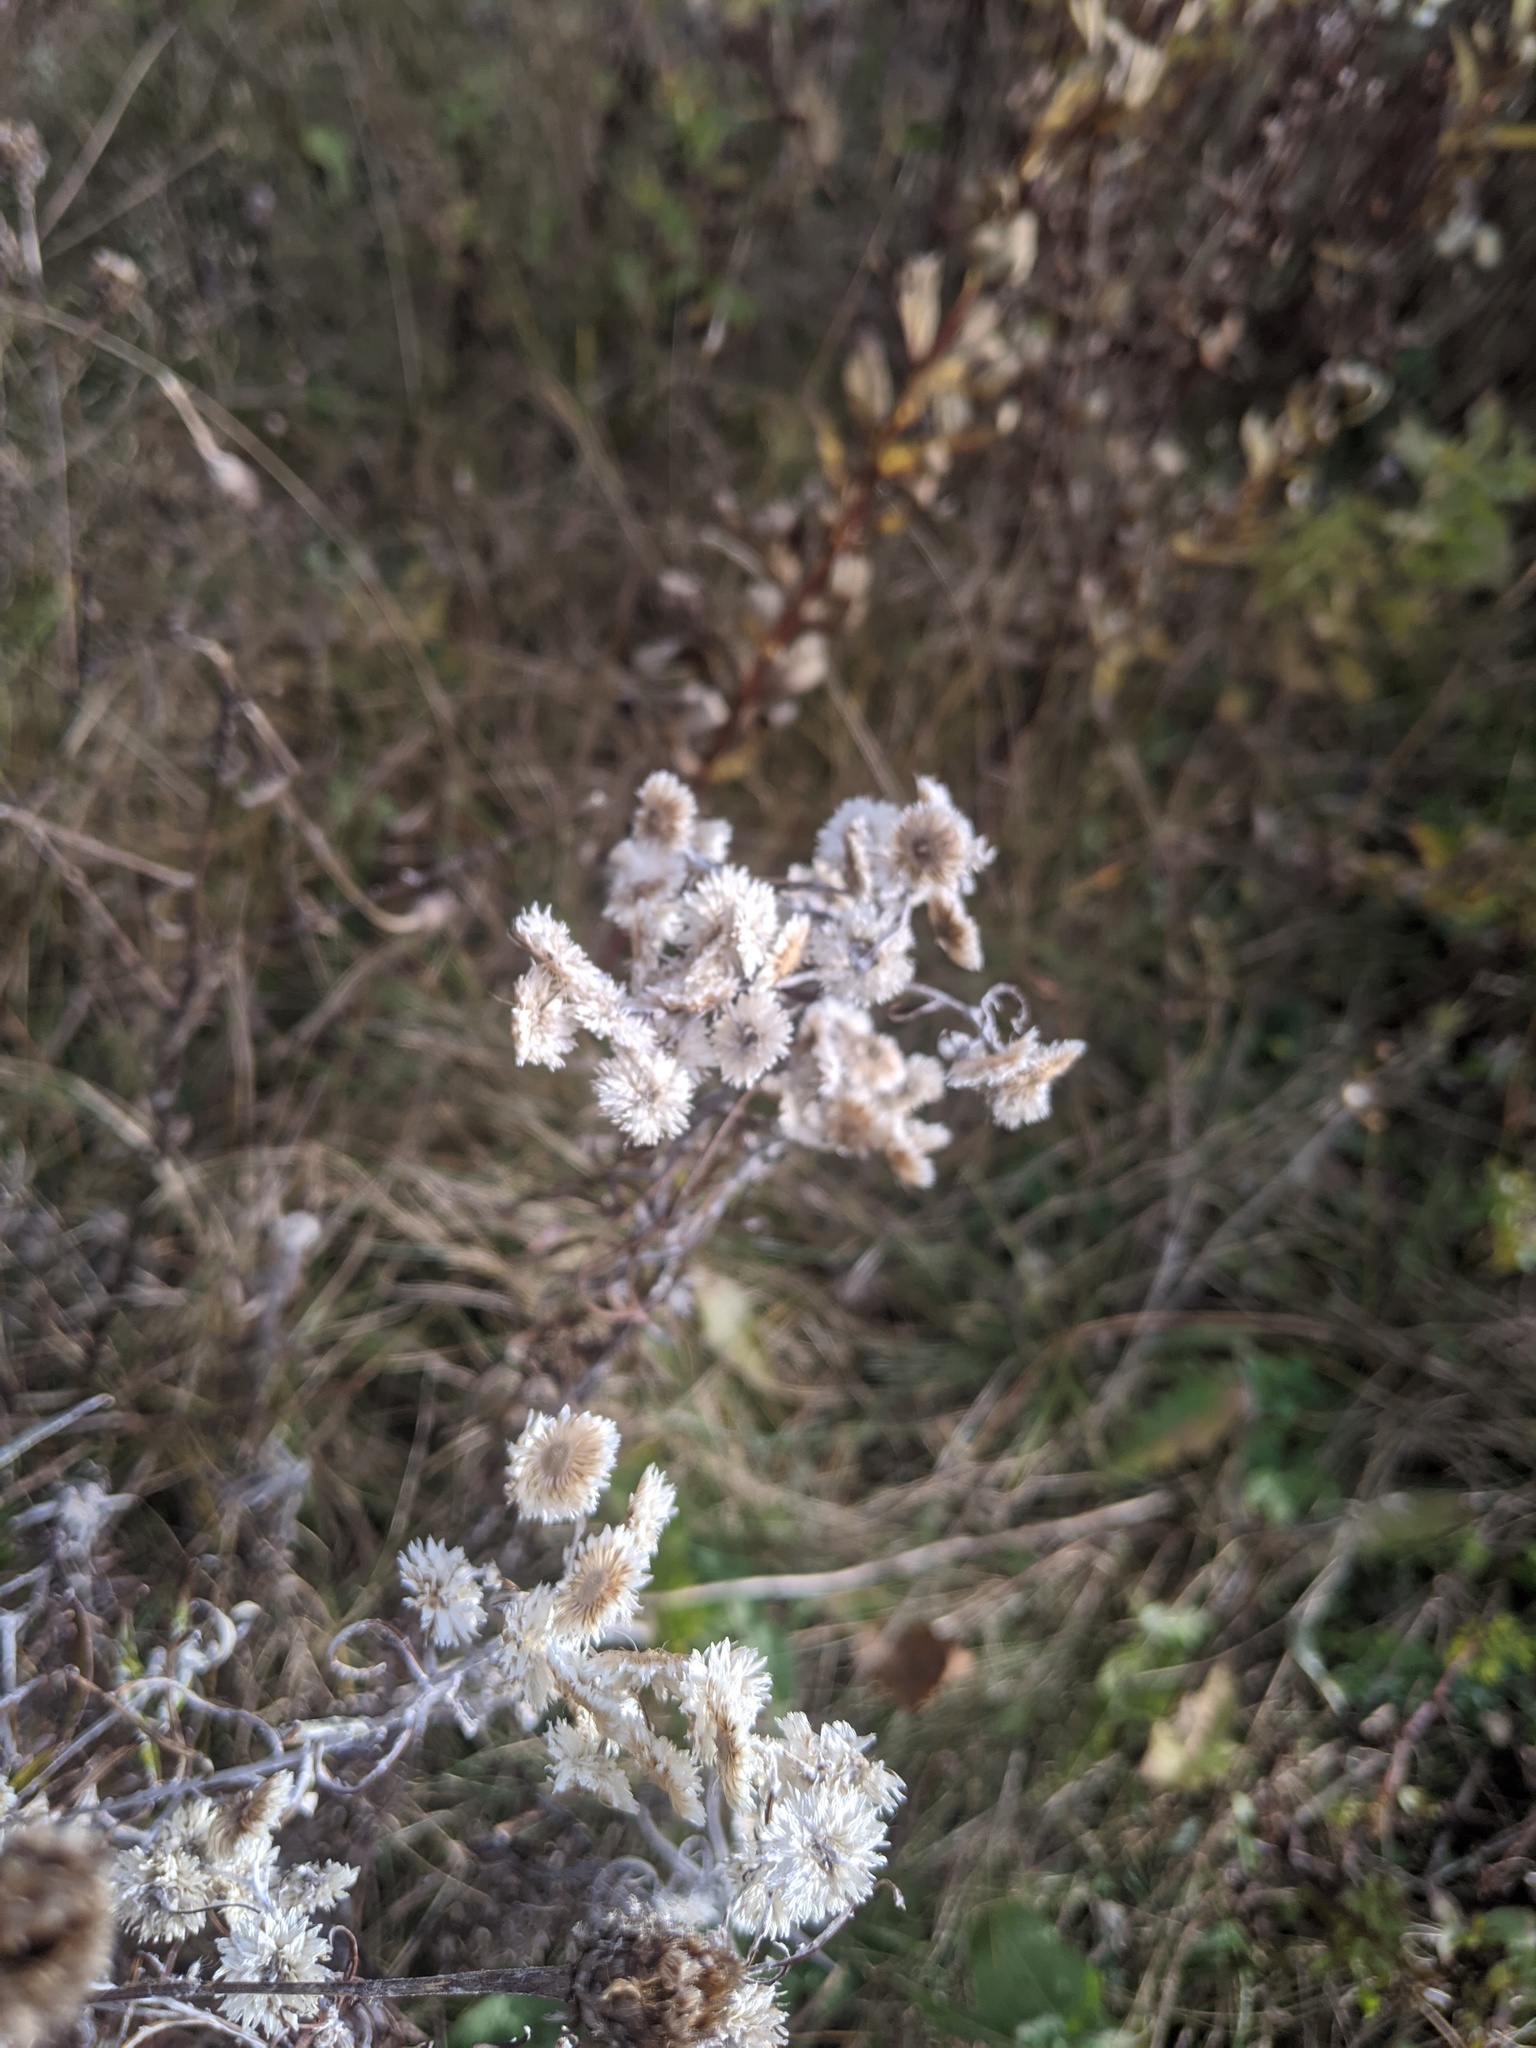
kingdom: Plantae
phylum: Tracheophyta
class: Magnoliopsida
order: Asterales
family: Asteraceae
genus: Anaphalis
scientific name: Anaphalis margaritacea
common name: Pearly everlasting
